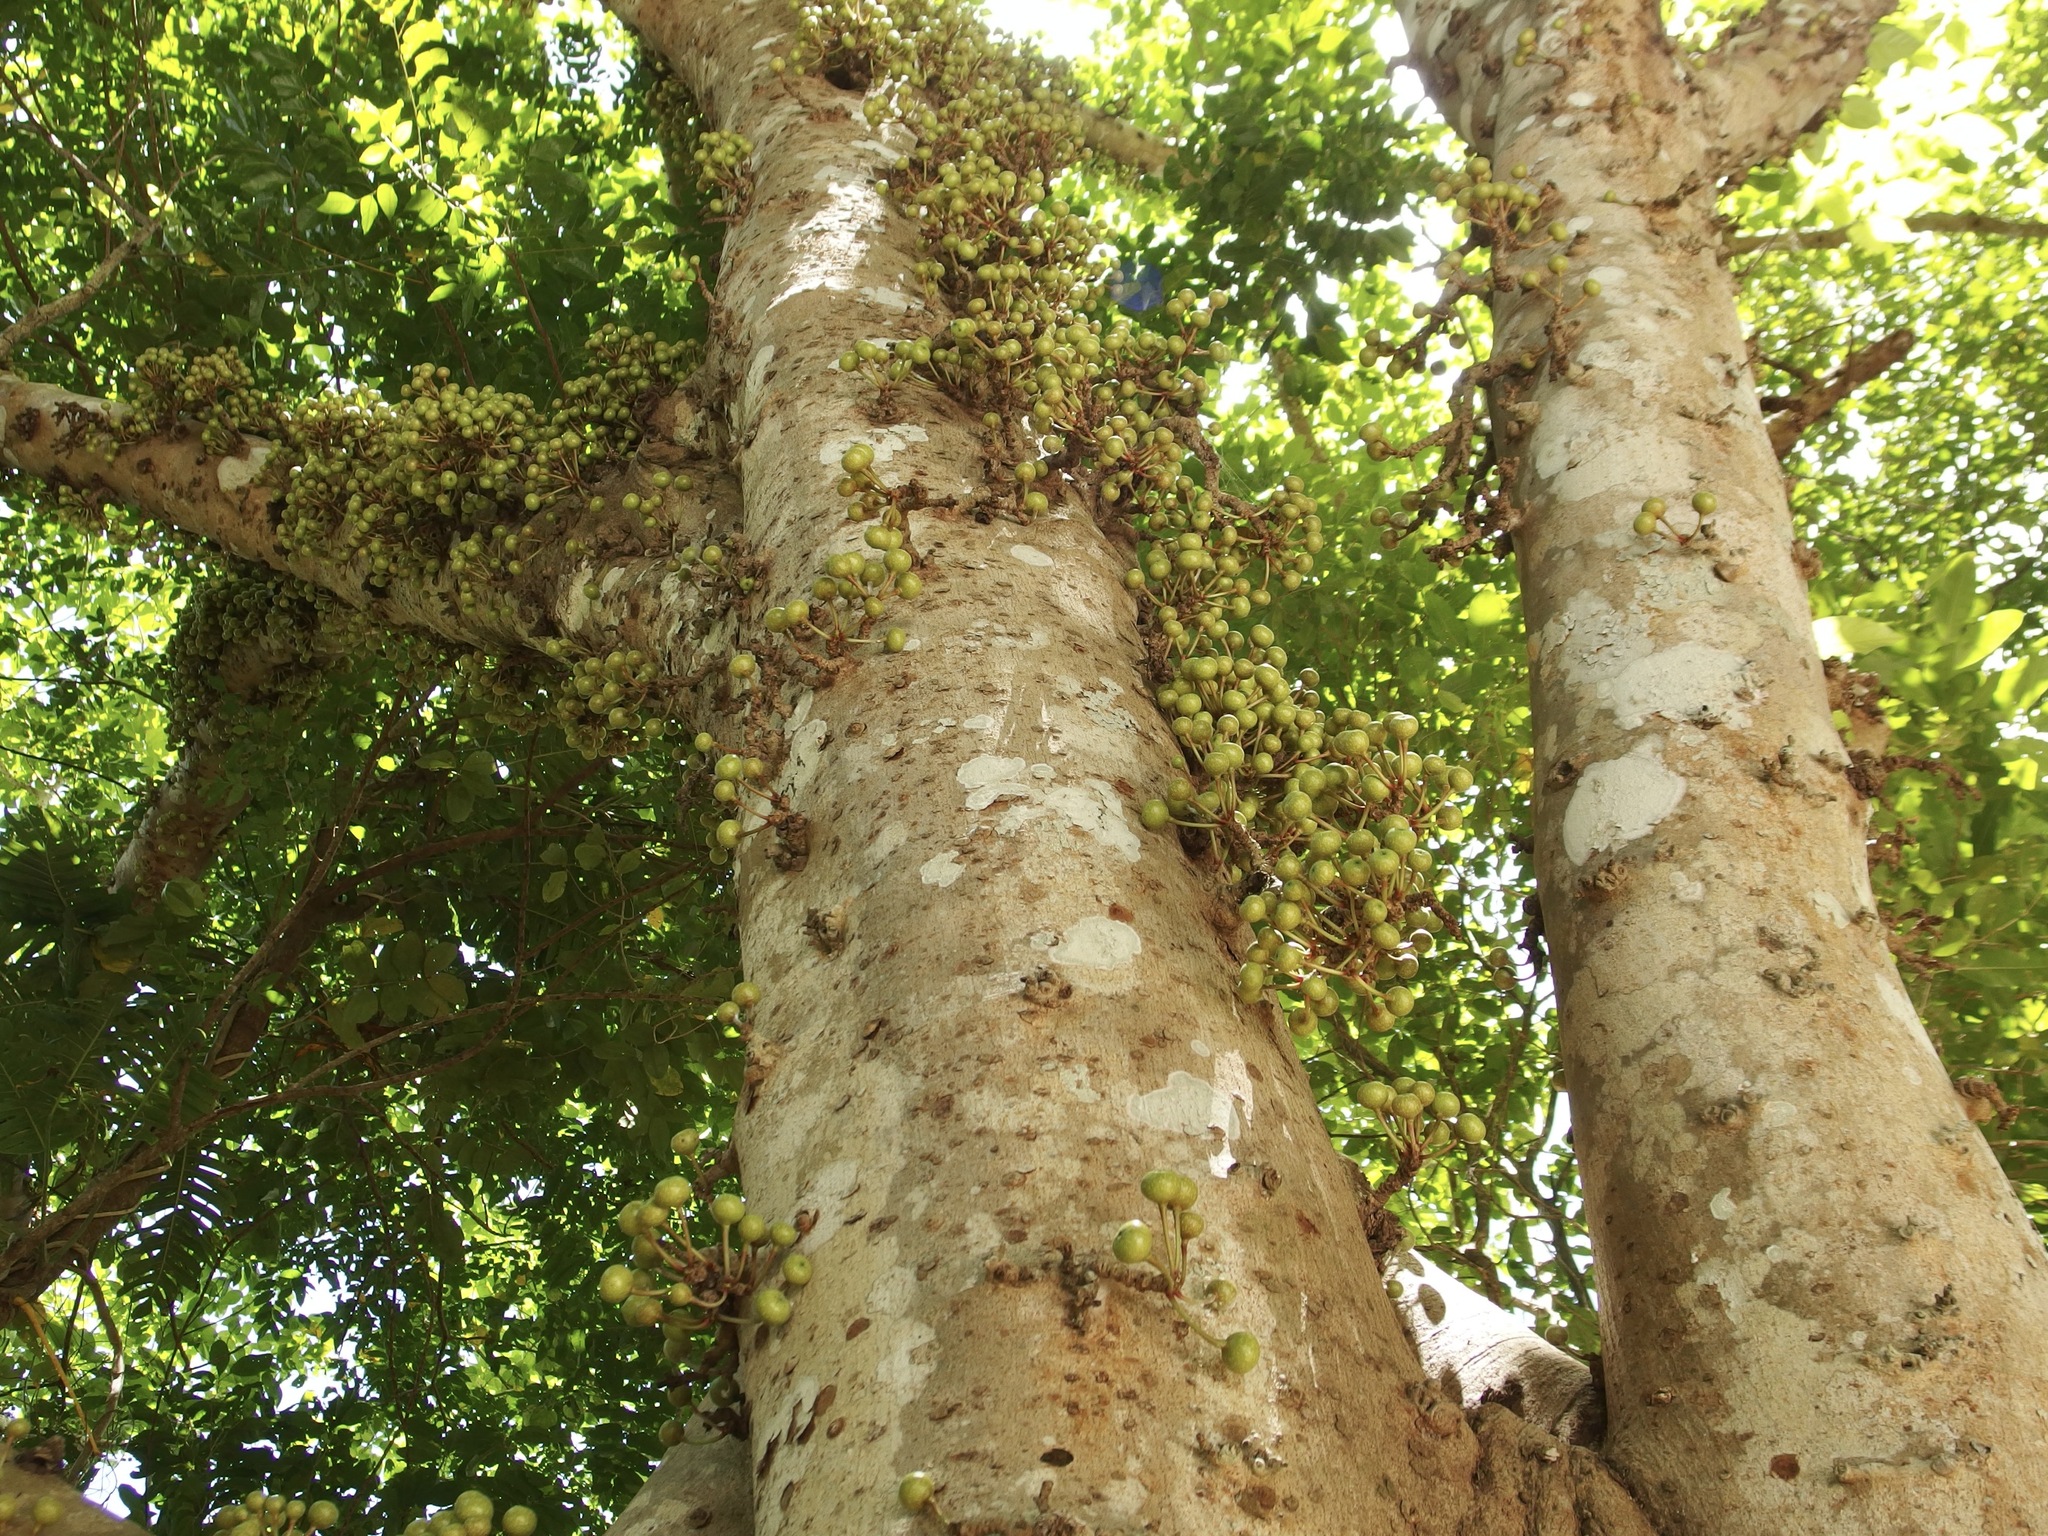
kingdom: Plantae
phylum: Tracheophyta
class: Magnoliopsida
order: Rosales
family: Moraceae
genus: Ficus
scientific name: Ficus variegata
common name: Variegated fig
